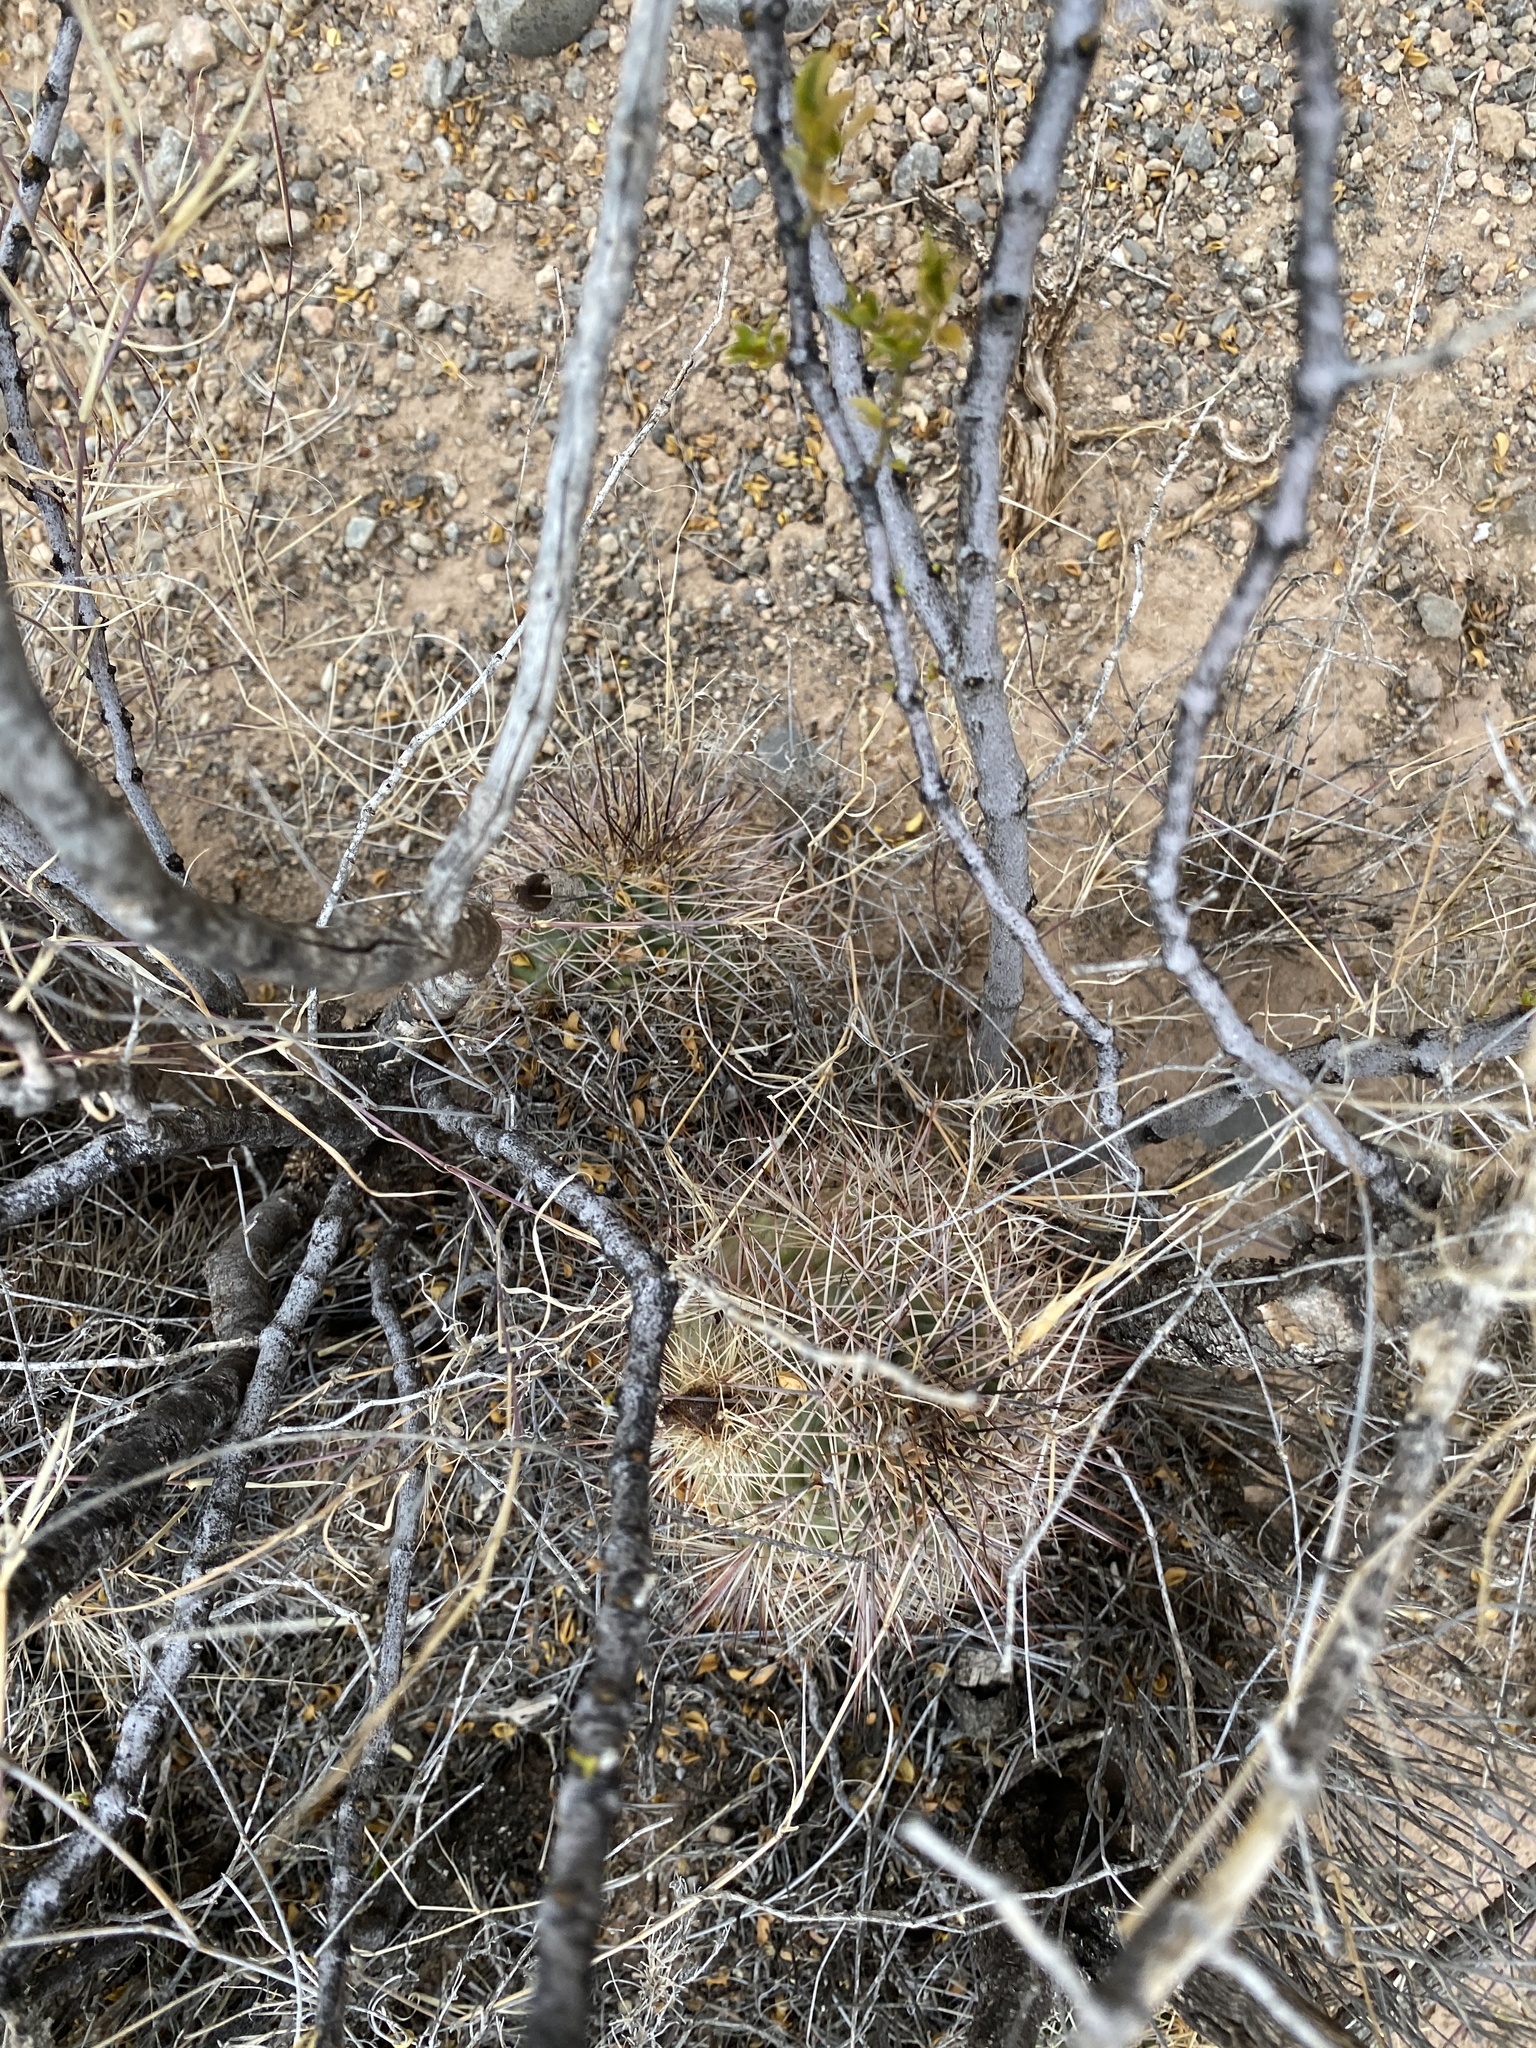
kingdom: Plantae
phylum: Tracheophyta
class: Magnoliopsida
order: Caryophyllales
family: Cactaceae
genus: Echinocereus
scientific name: Echinocereus coccineus
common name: Scarlet hedgehog cactus
